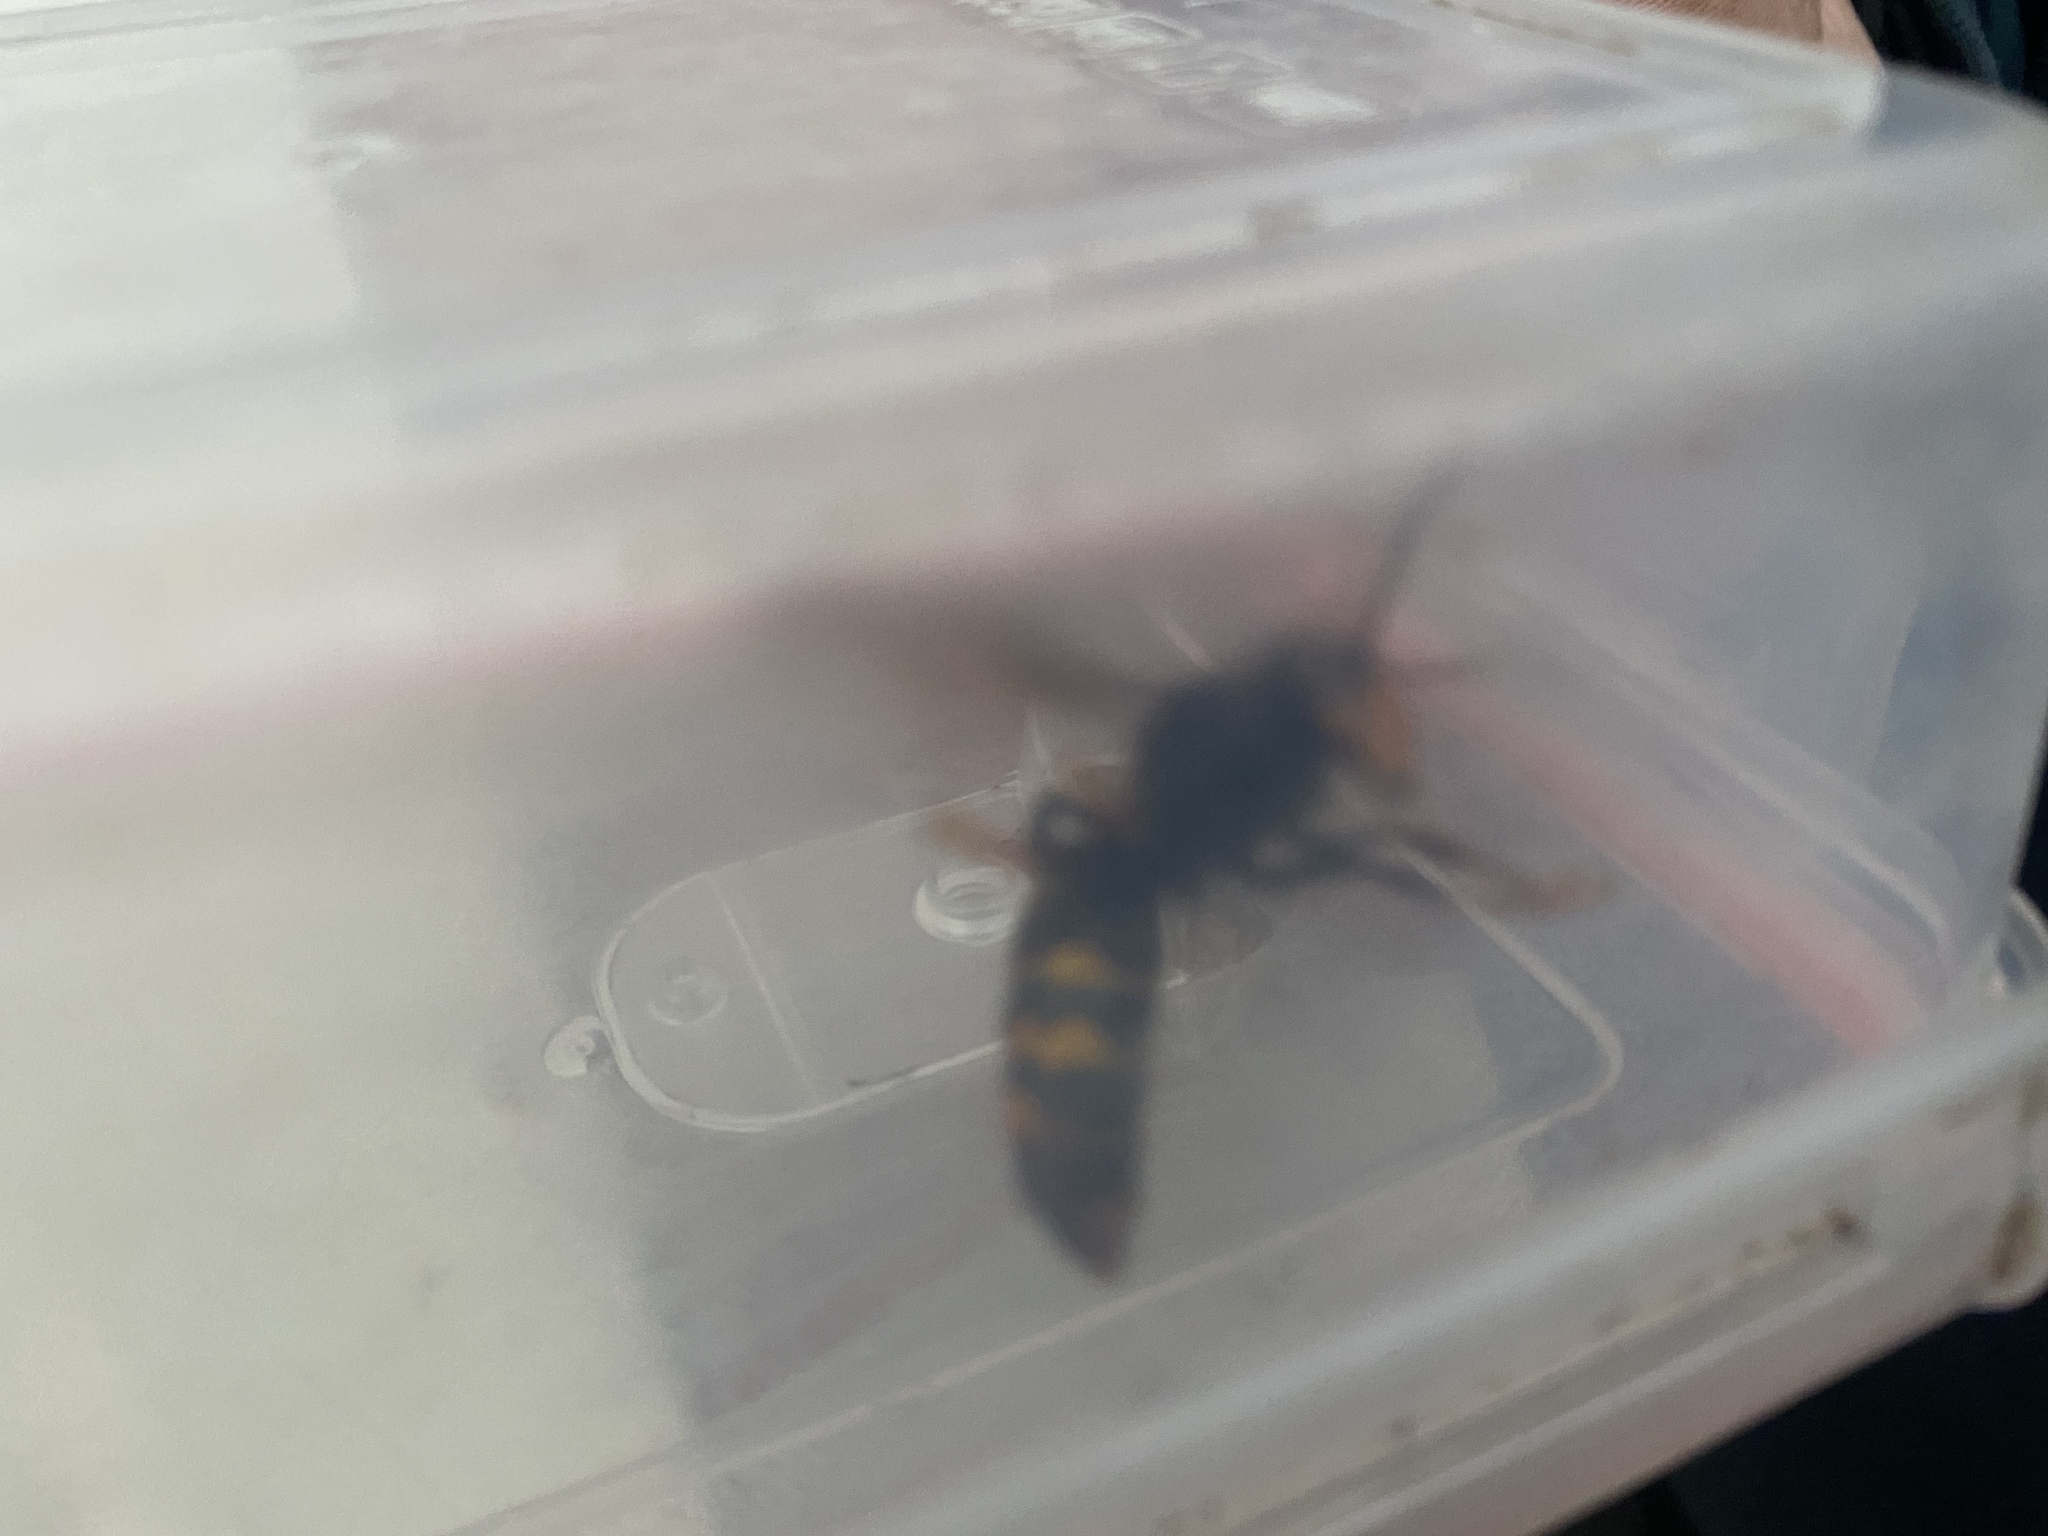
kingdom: Animalia
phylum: Arthropoda
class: Insecta
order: Hymenoptera
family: Vespidae
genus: Vespa
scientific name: Vespa velutina
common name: Asian hornet
